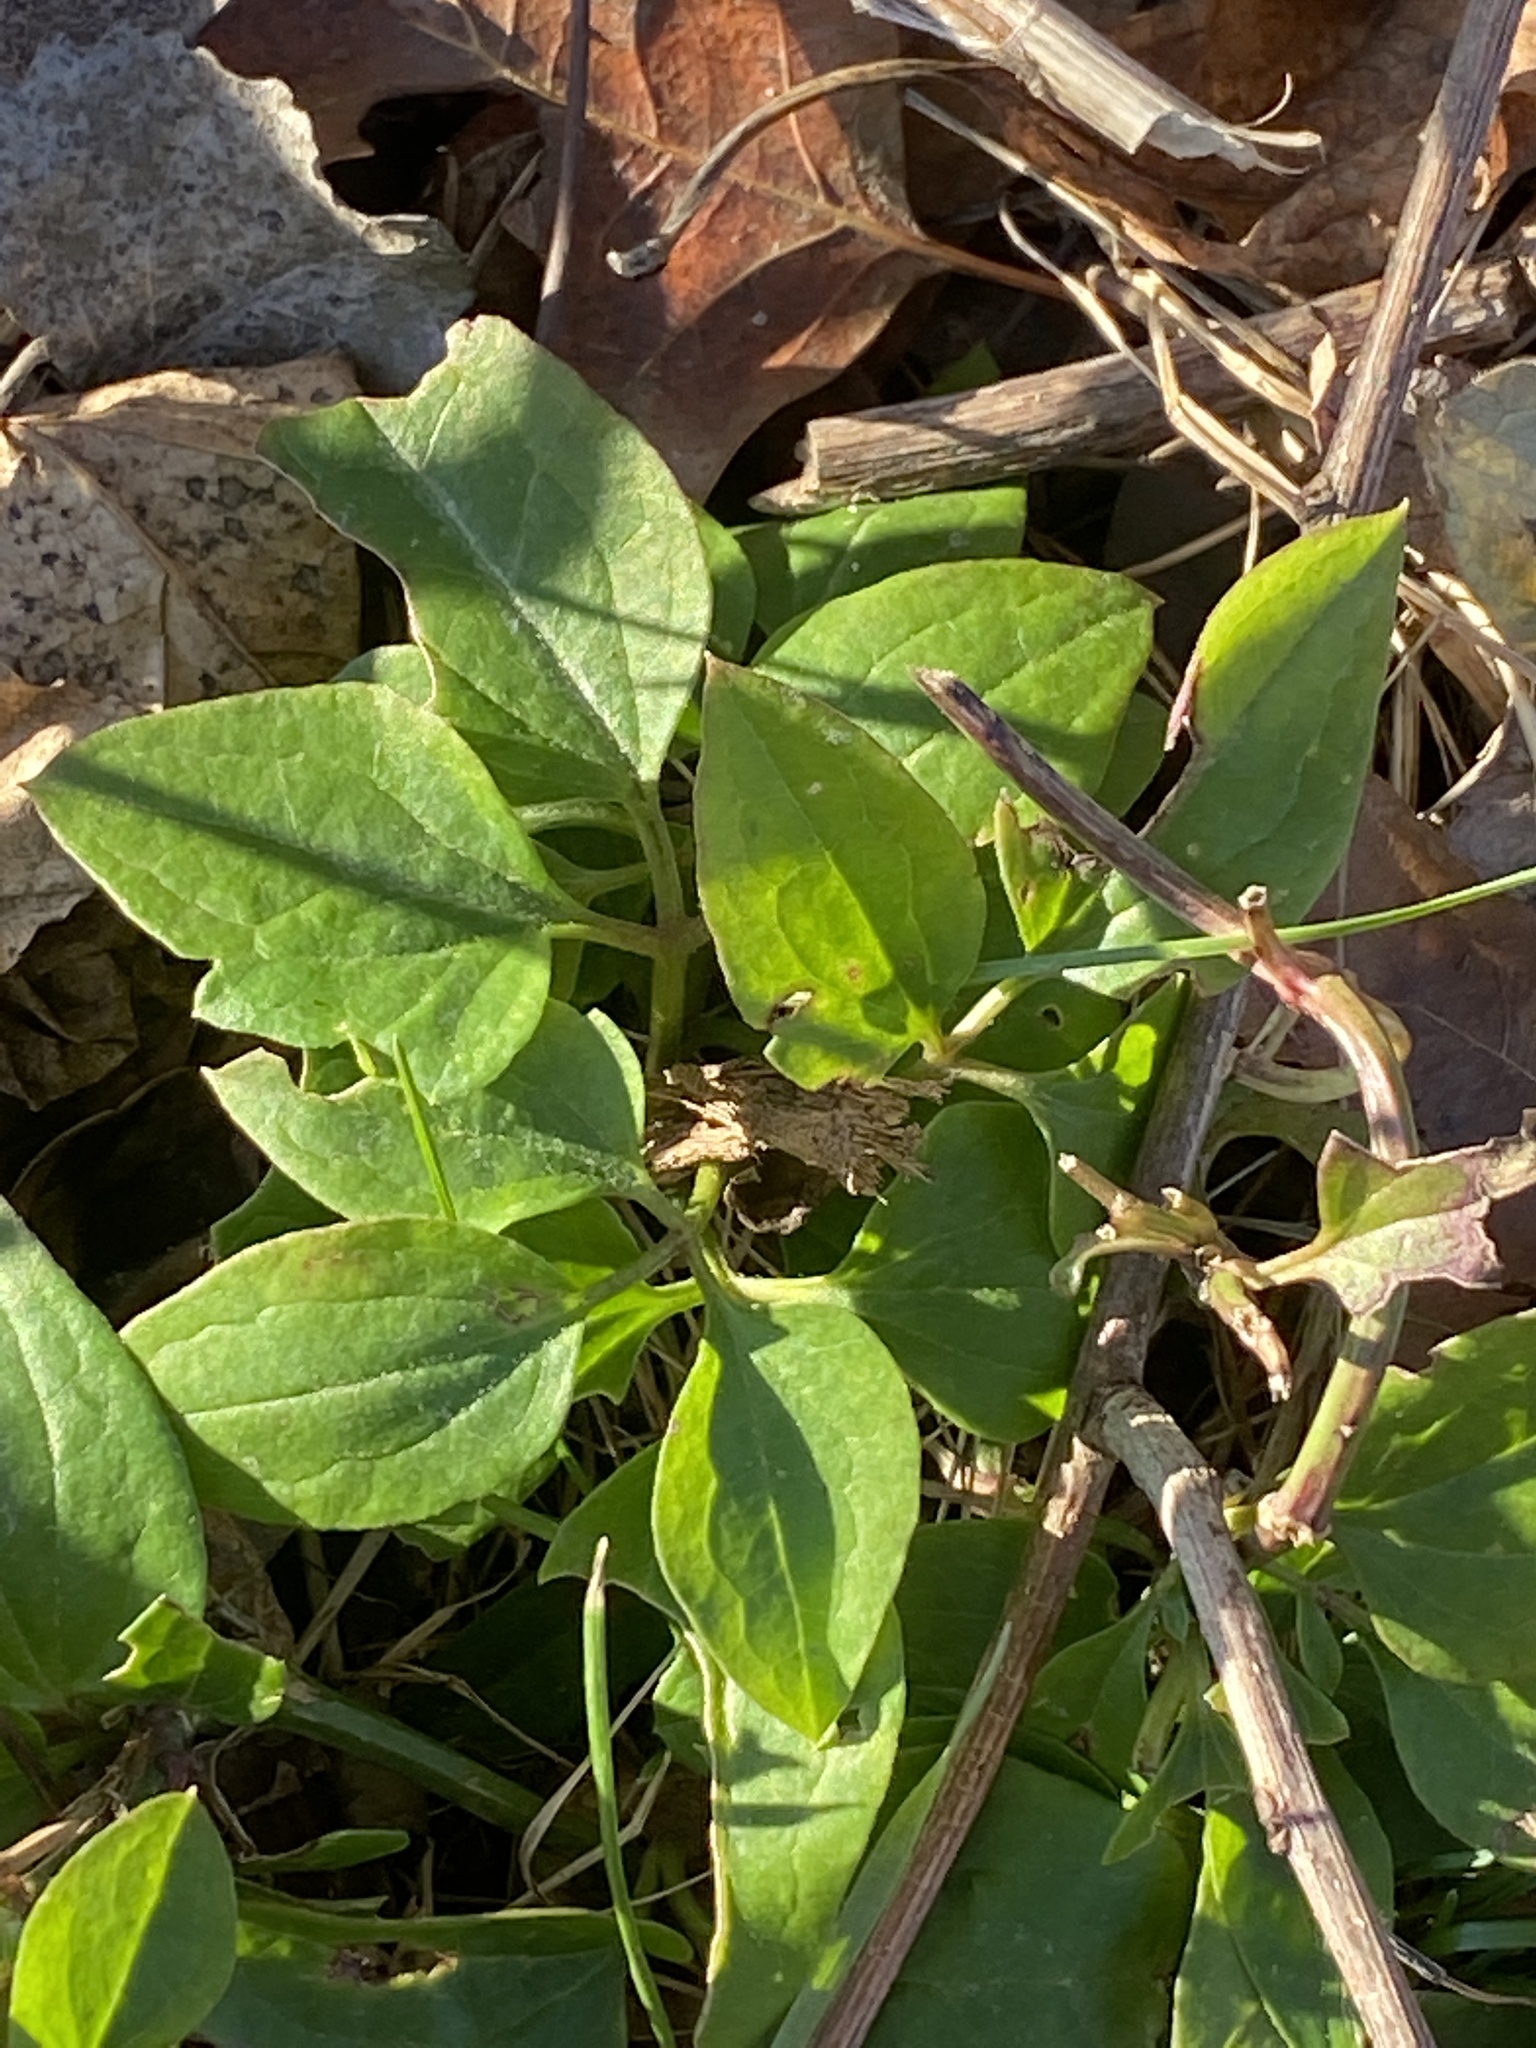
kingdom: Plantae
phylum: Tracheophyta
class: Magnoliopsida
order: Ranunculales
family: Ranunculaceae
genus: Clematis
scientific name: Clematis terniflora
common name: Sweet autumn clematis
